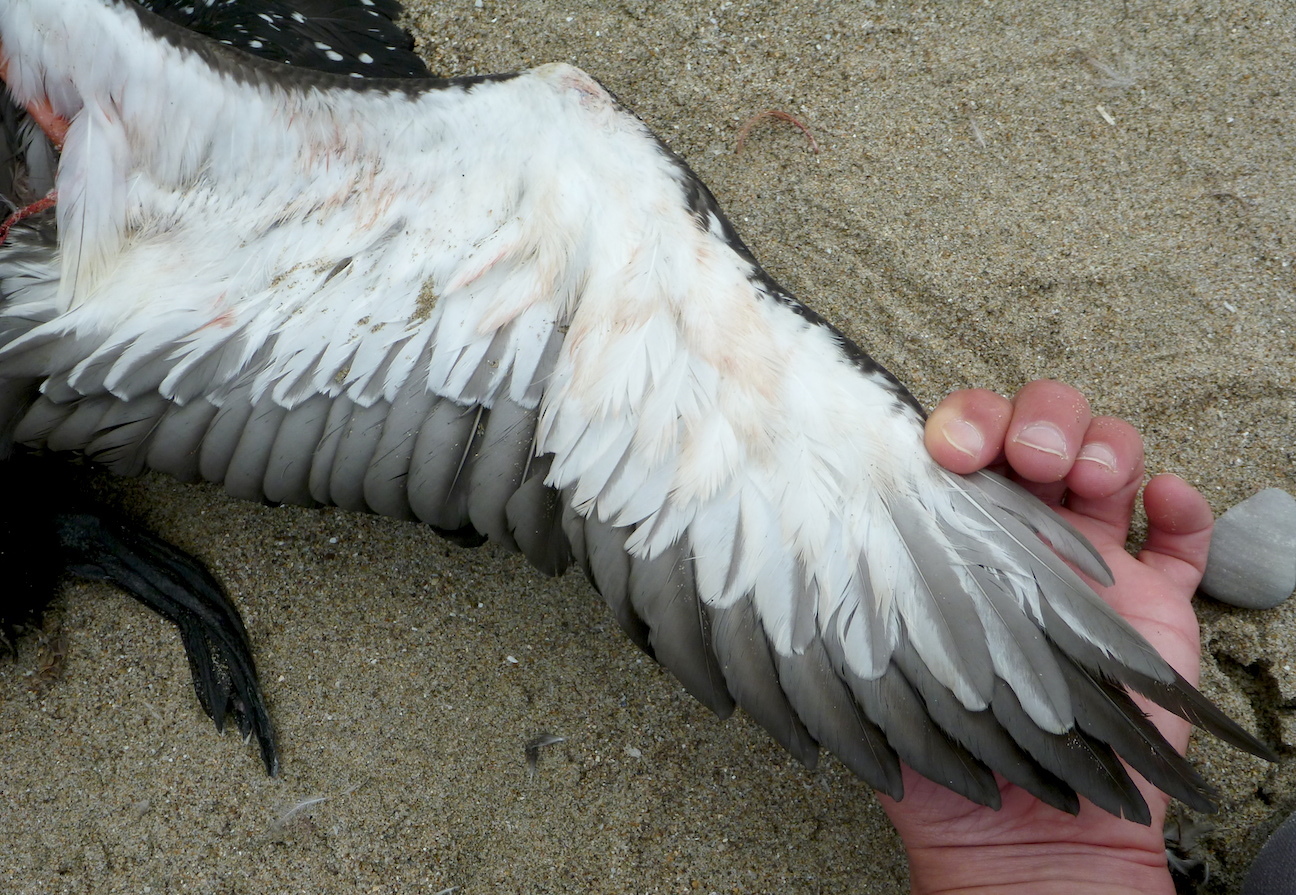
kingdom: Animalia
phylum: Chordata
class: Aves
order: Gaviiformes
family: Gaviidae
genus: Gavia
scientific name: Gavia pacifica
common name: Pacific loon
